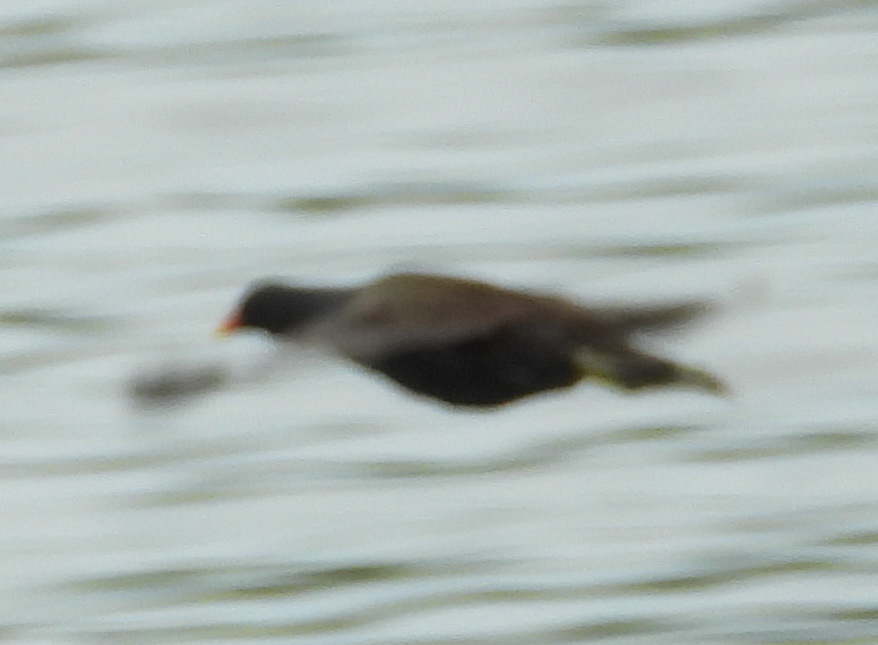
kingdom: Animalia
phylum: Chordata
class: Aves
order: Gruiformes
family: Rallidae
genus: Gallinula
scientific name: Gallinula chloropus
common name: Common moorhen
